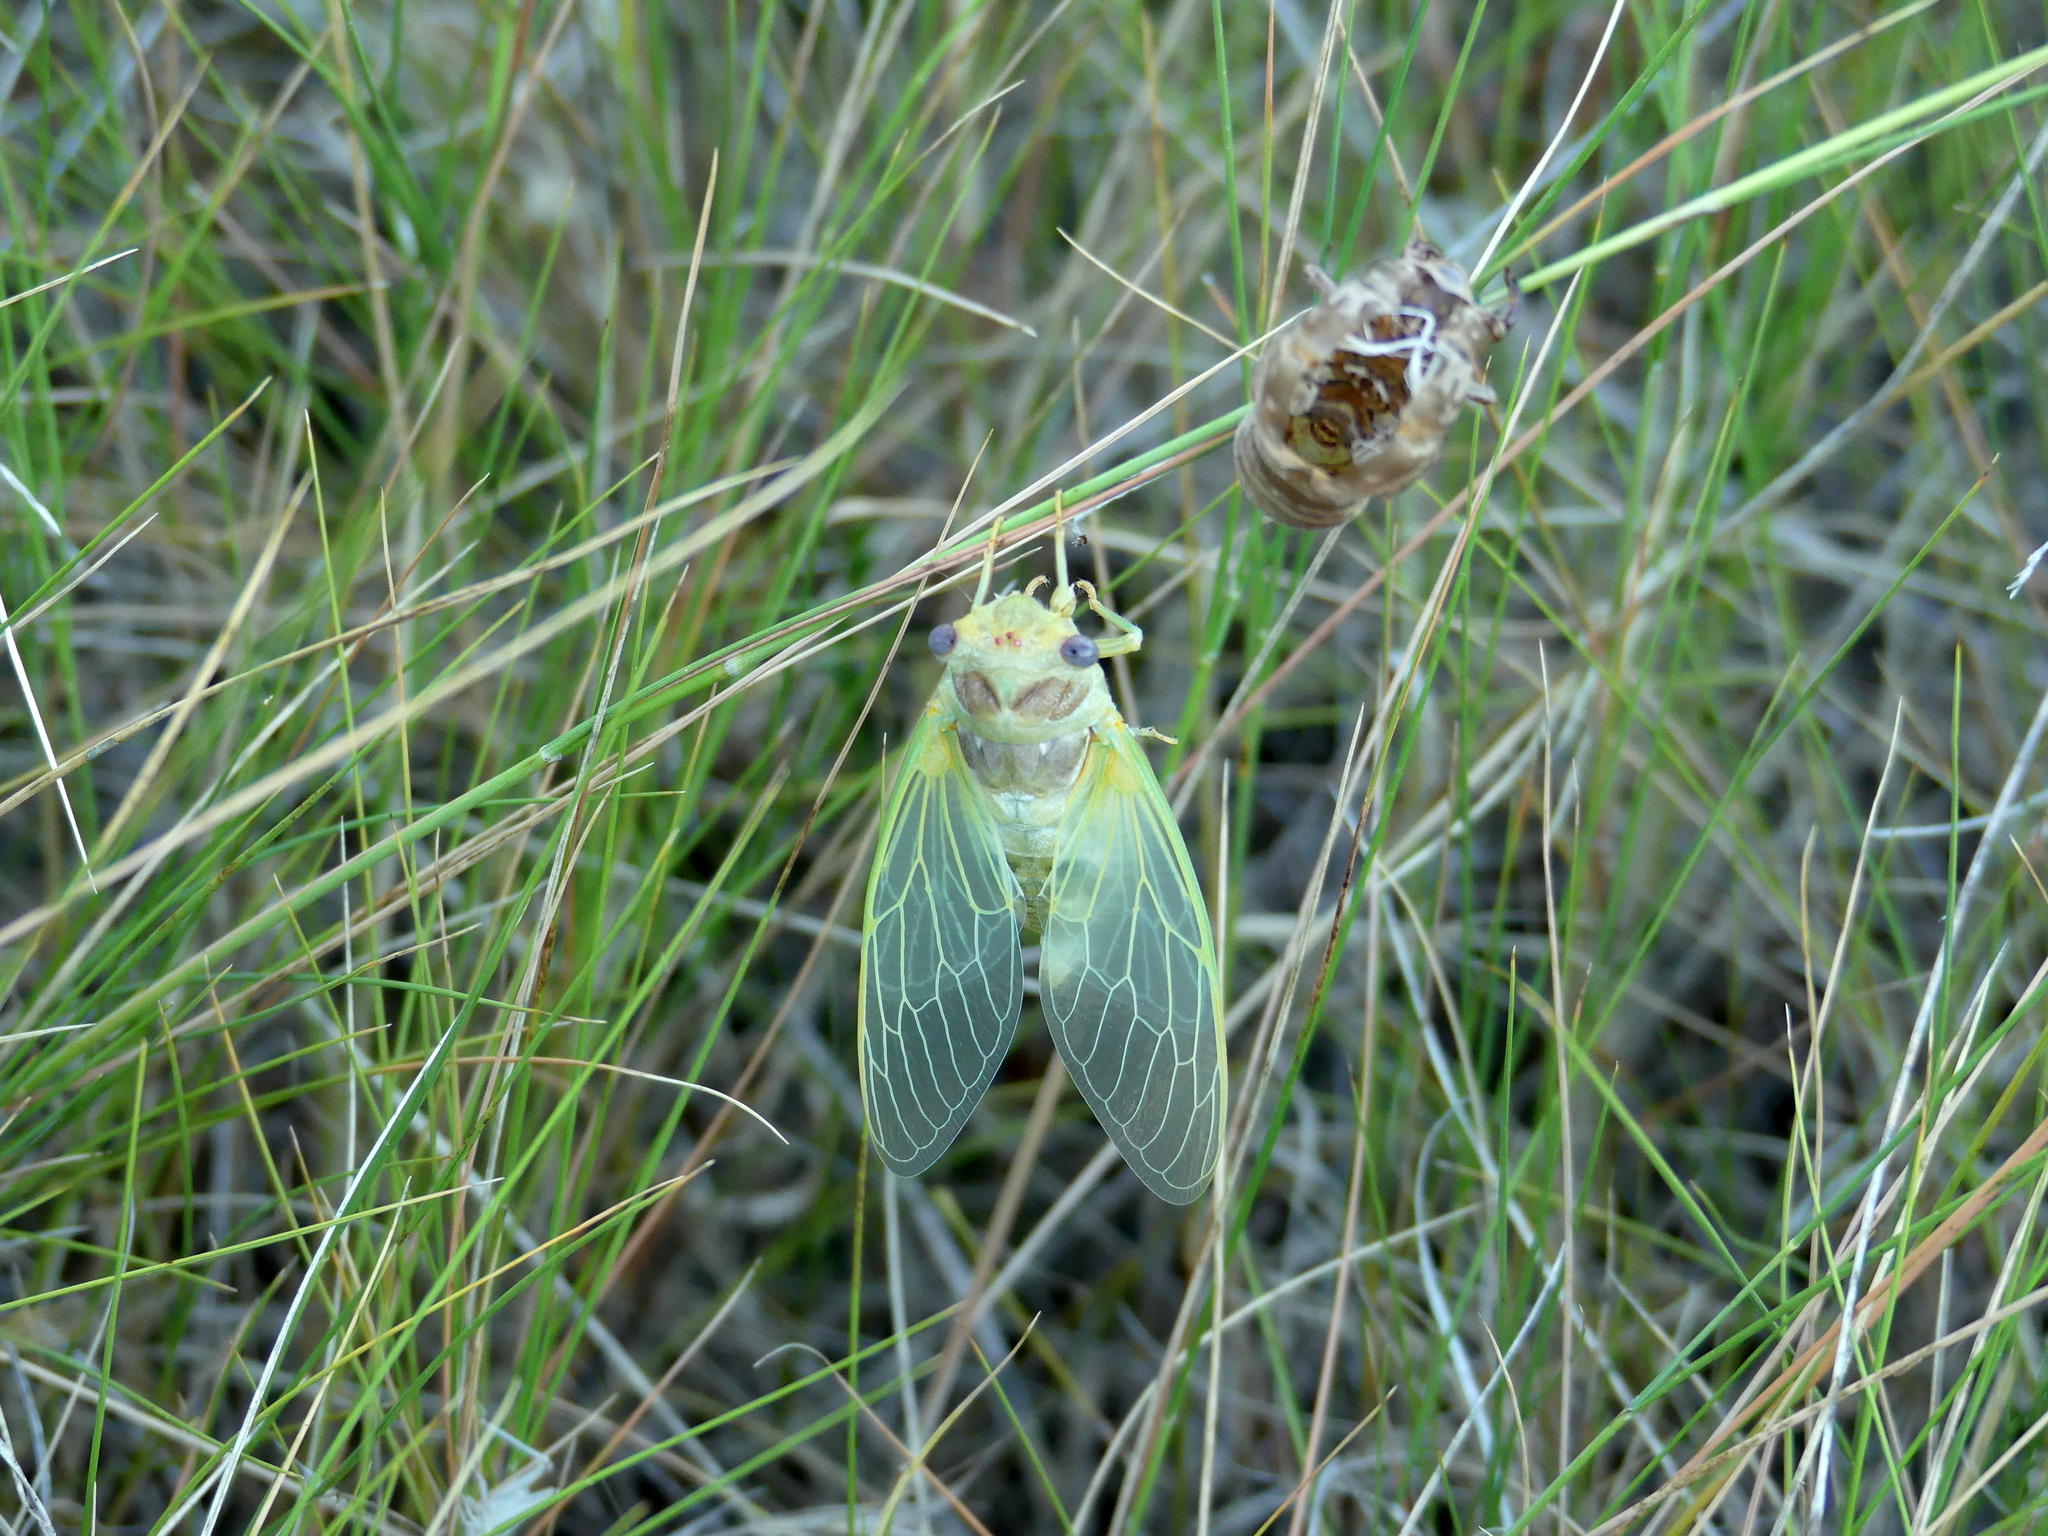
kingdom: Animalia
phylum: Arthropoda
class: Insecta
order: Hemiptera
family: Cicadidae
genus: Lyristes
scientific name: Lyristes plebejus
